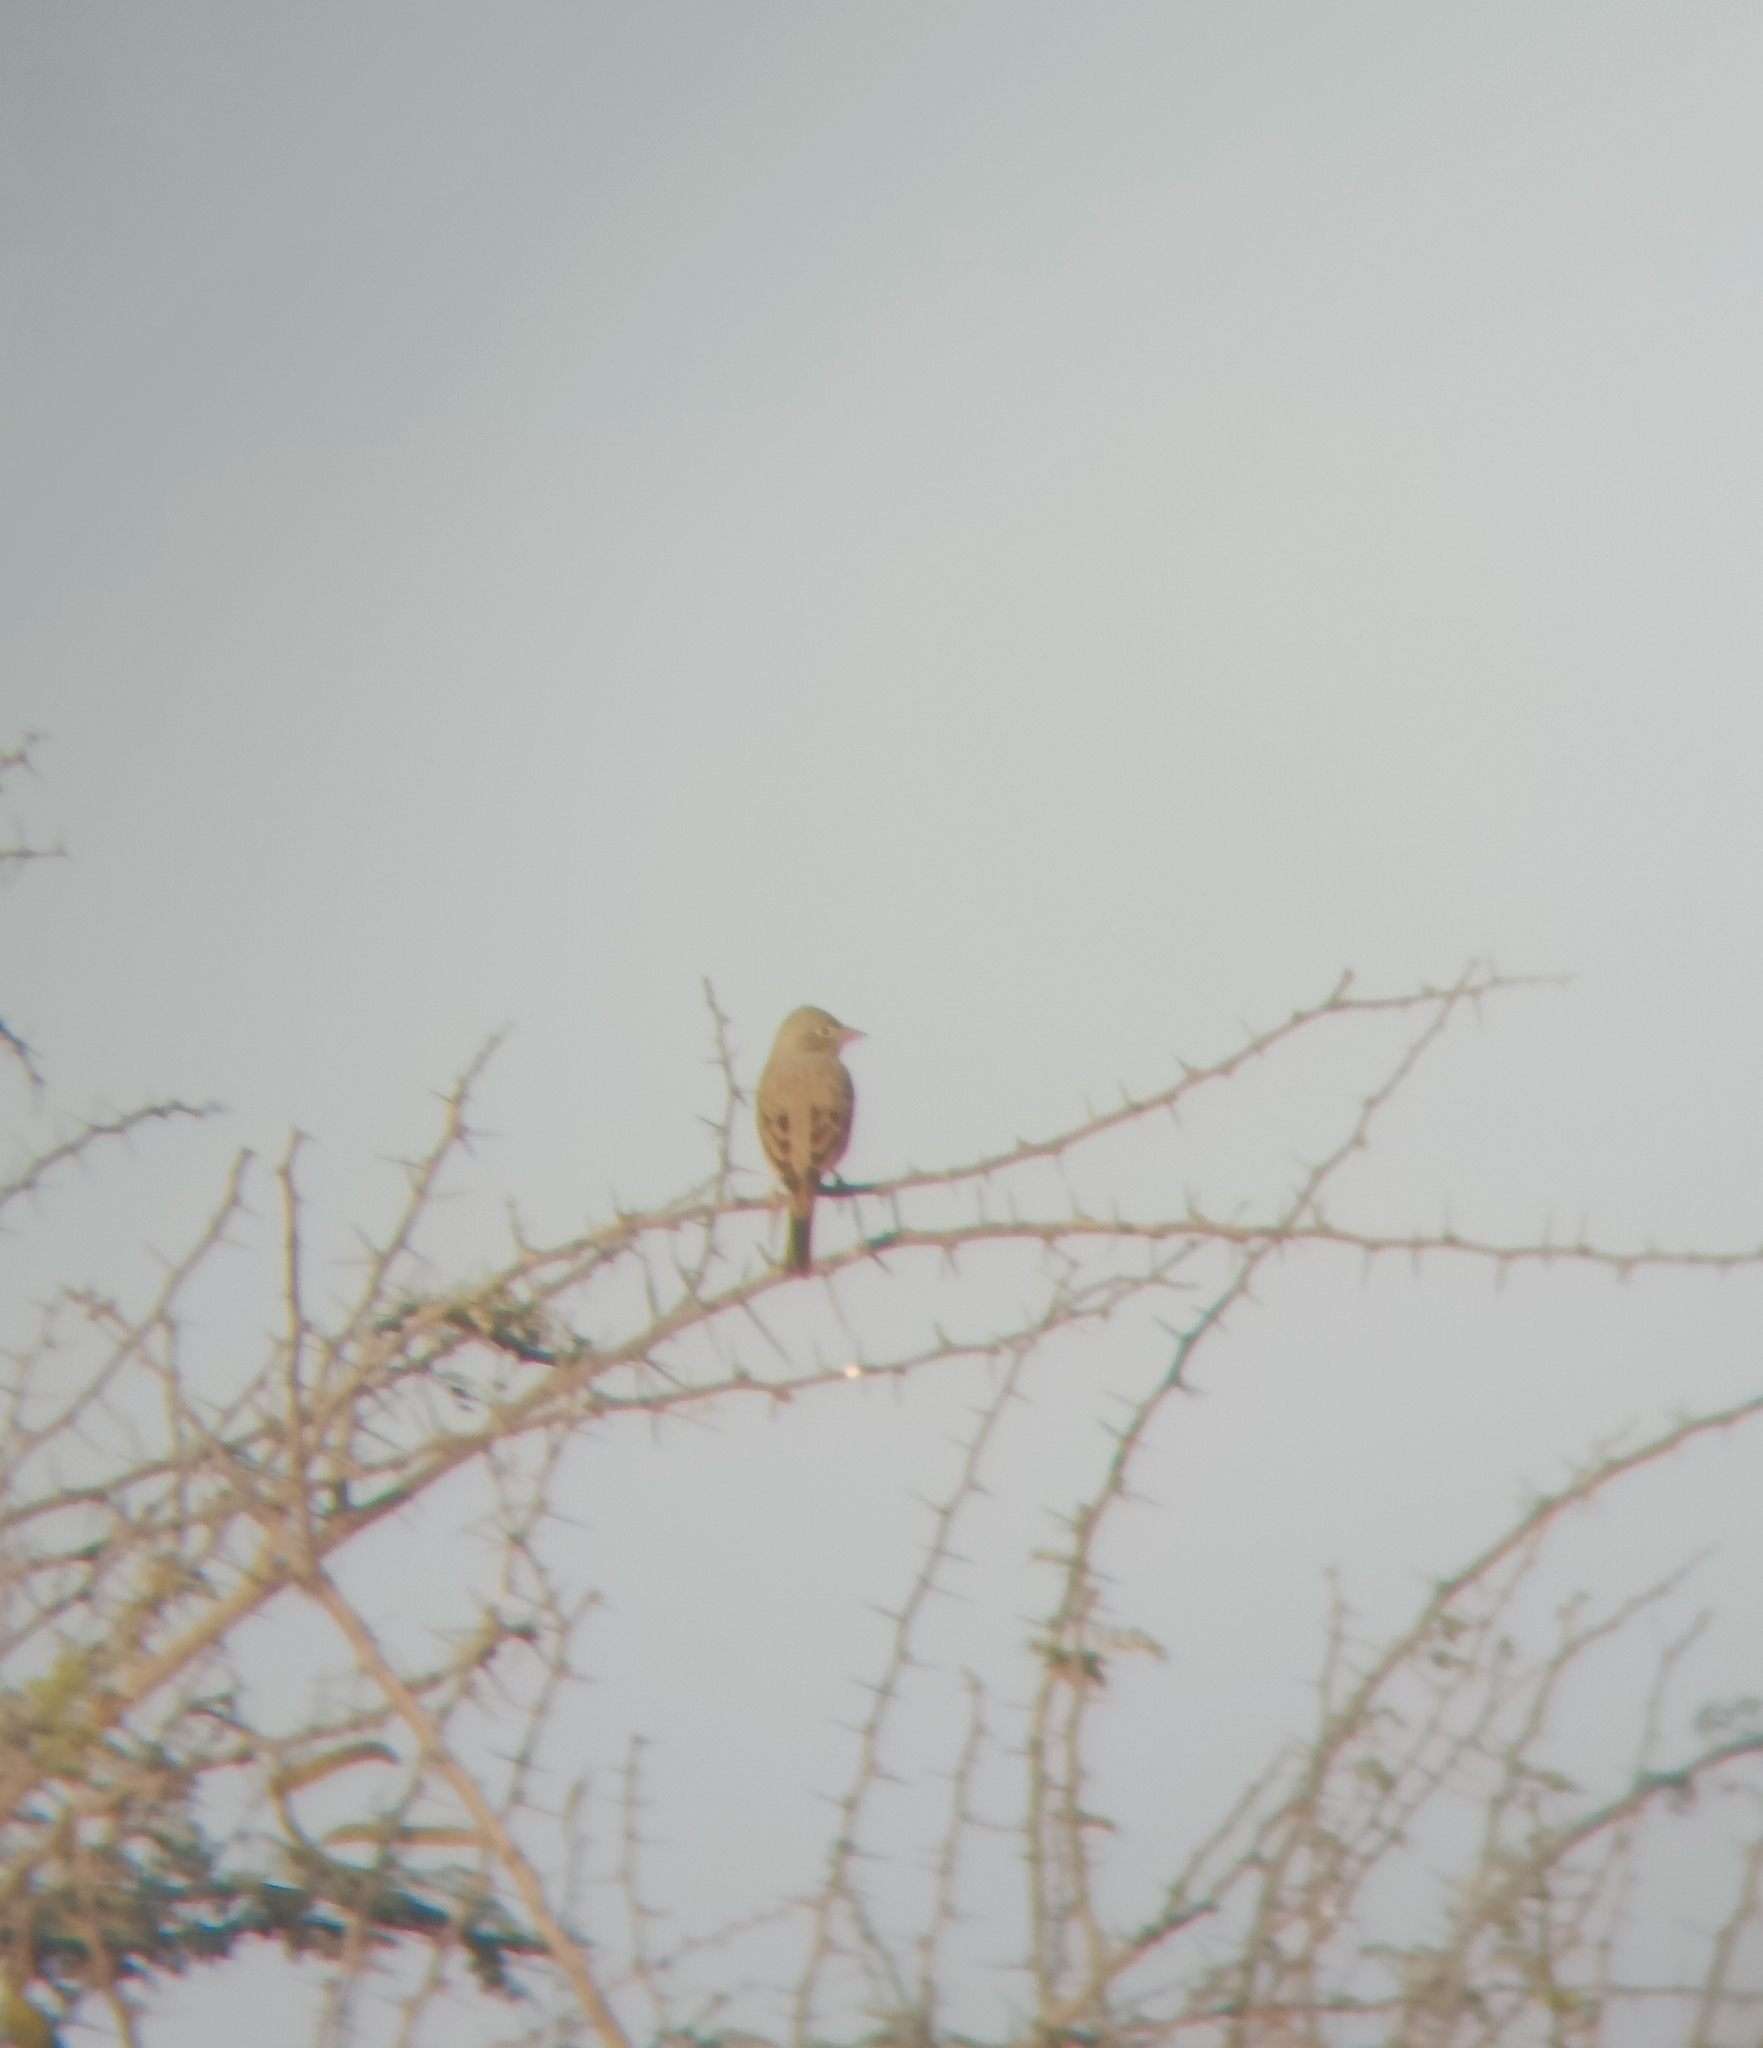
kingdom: Animalia
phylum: Chordata
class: Aves
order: Passeriformes
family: Emberizidae
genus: Emberiza
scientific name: Emberiza buchanani
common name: Grey-necked bunting
